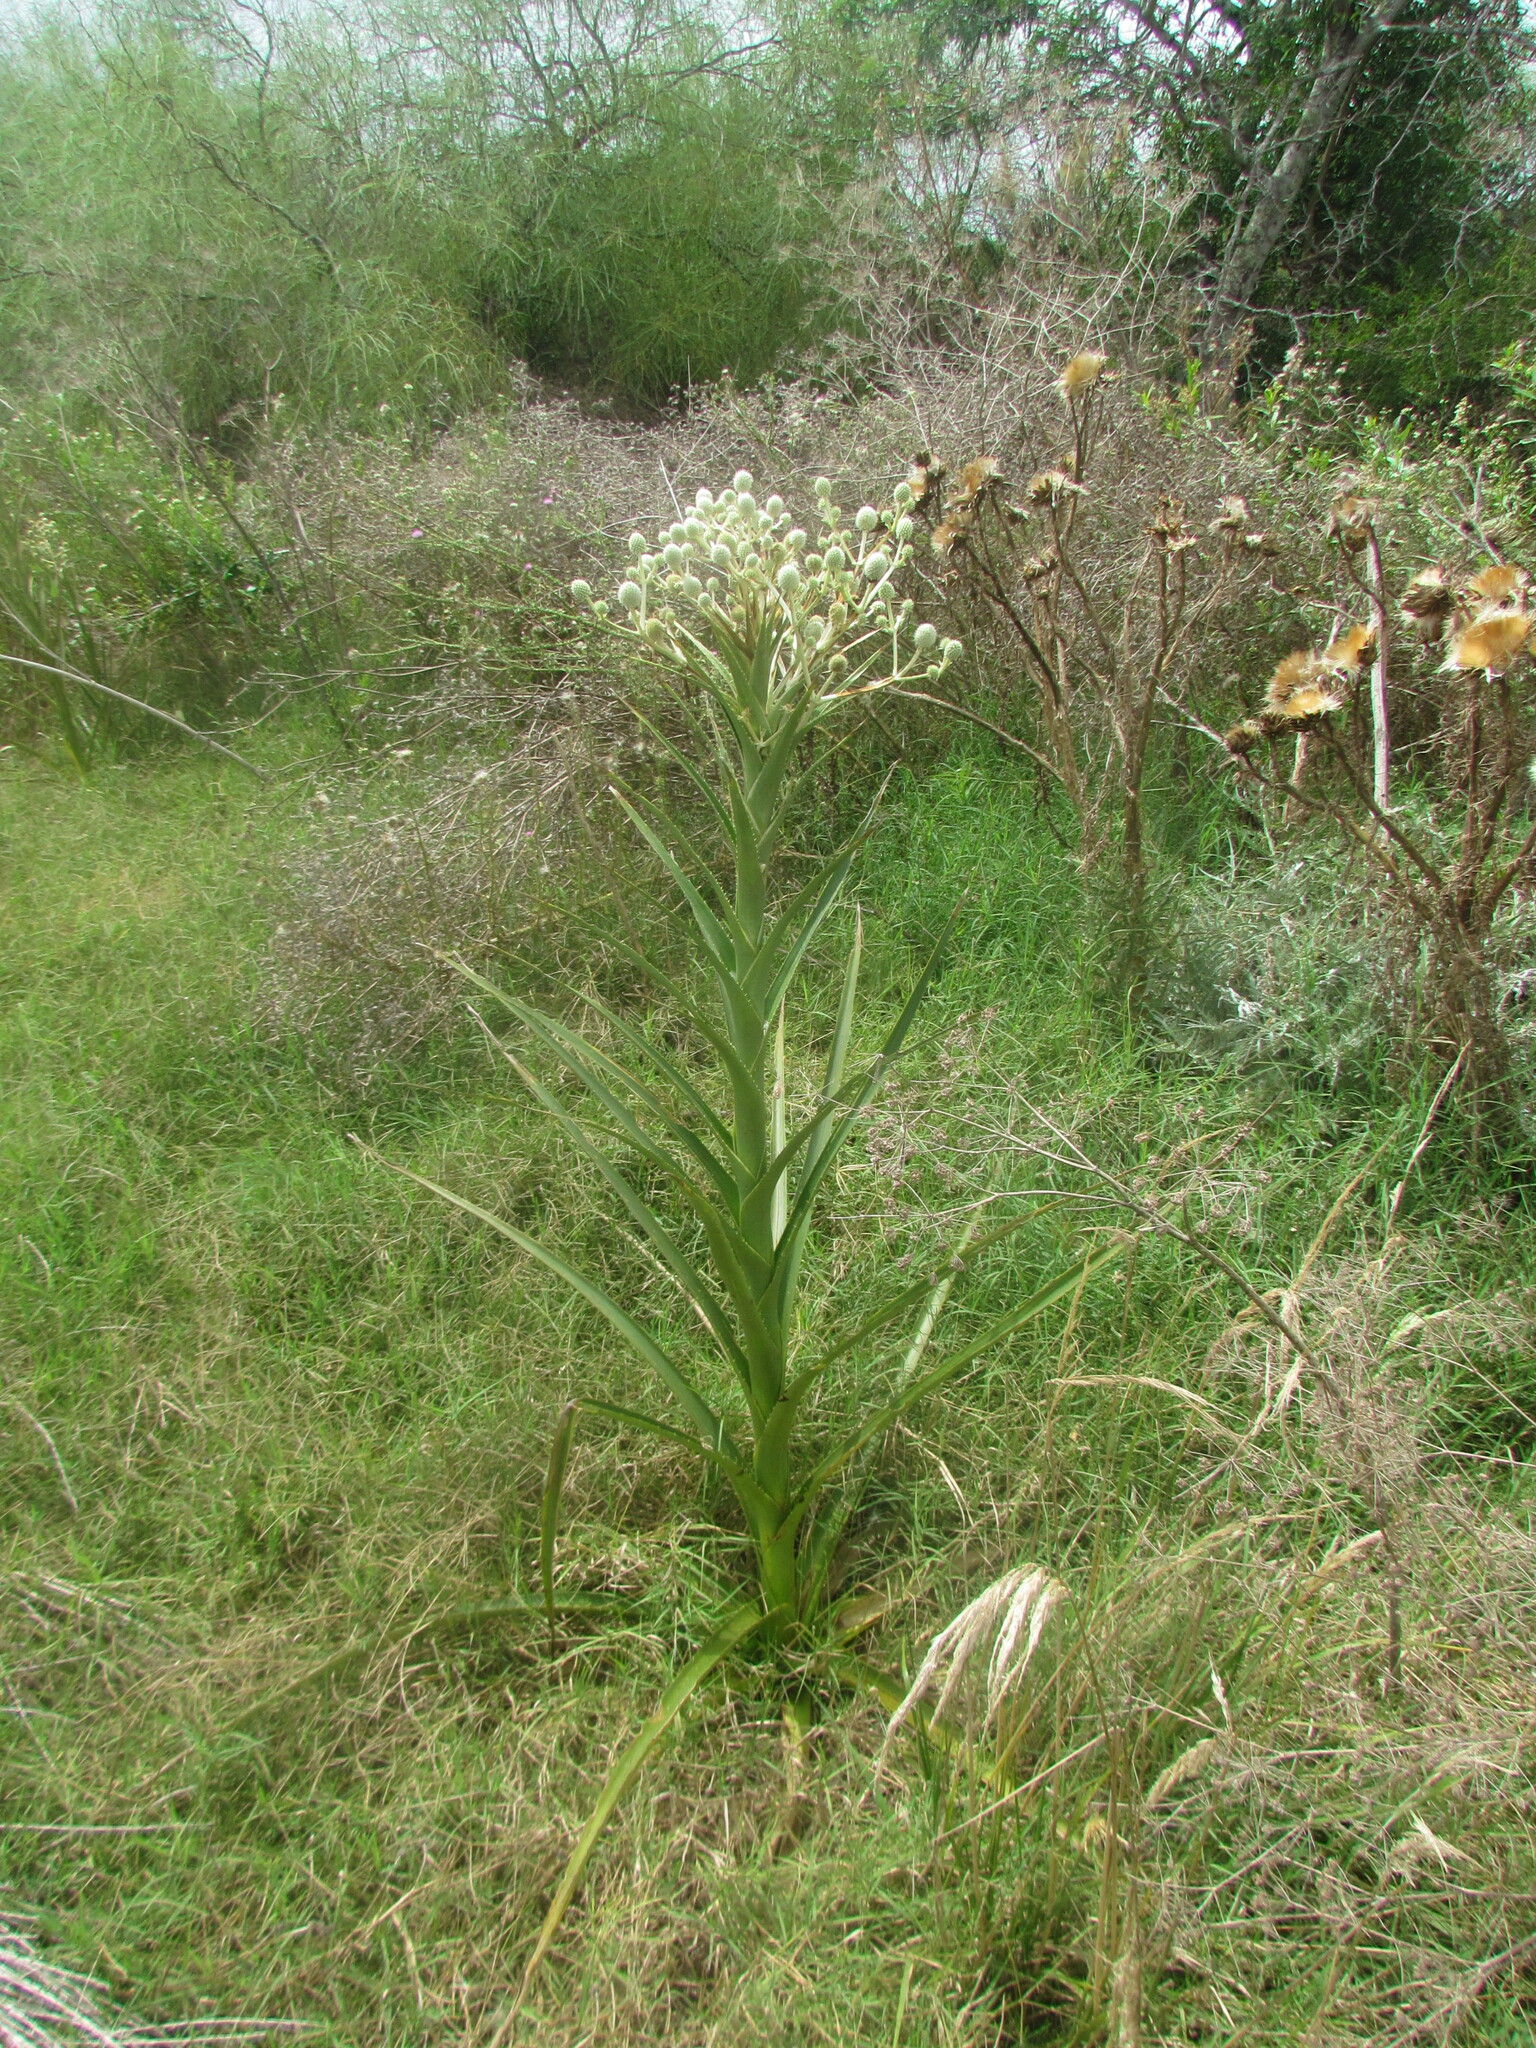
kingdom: Plantae
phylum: Tracheophyta
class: Magnoliopsida
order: Apiales
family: Apiaceae
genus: Eryngium
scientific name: Eryngium eburneum
